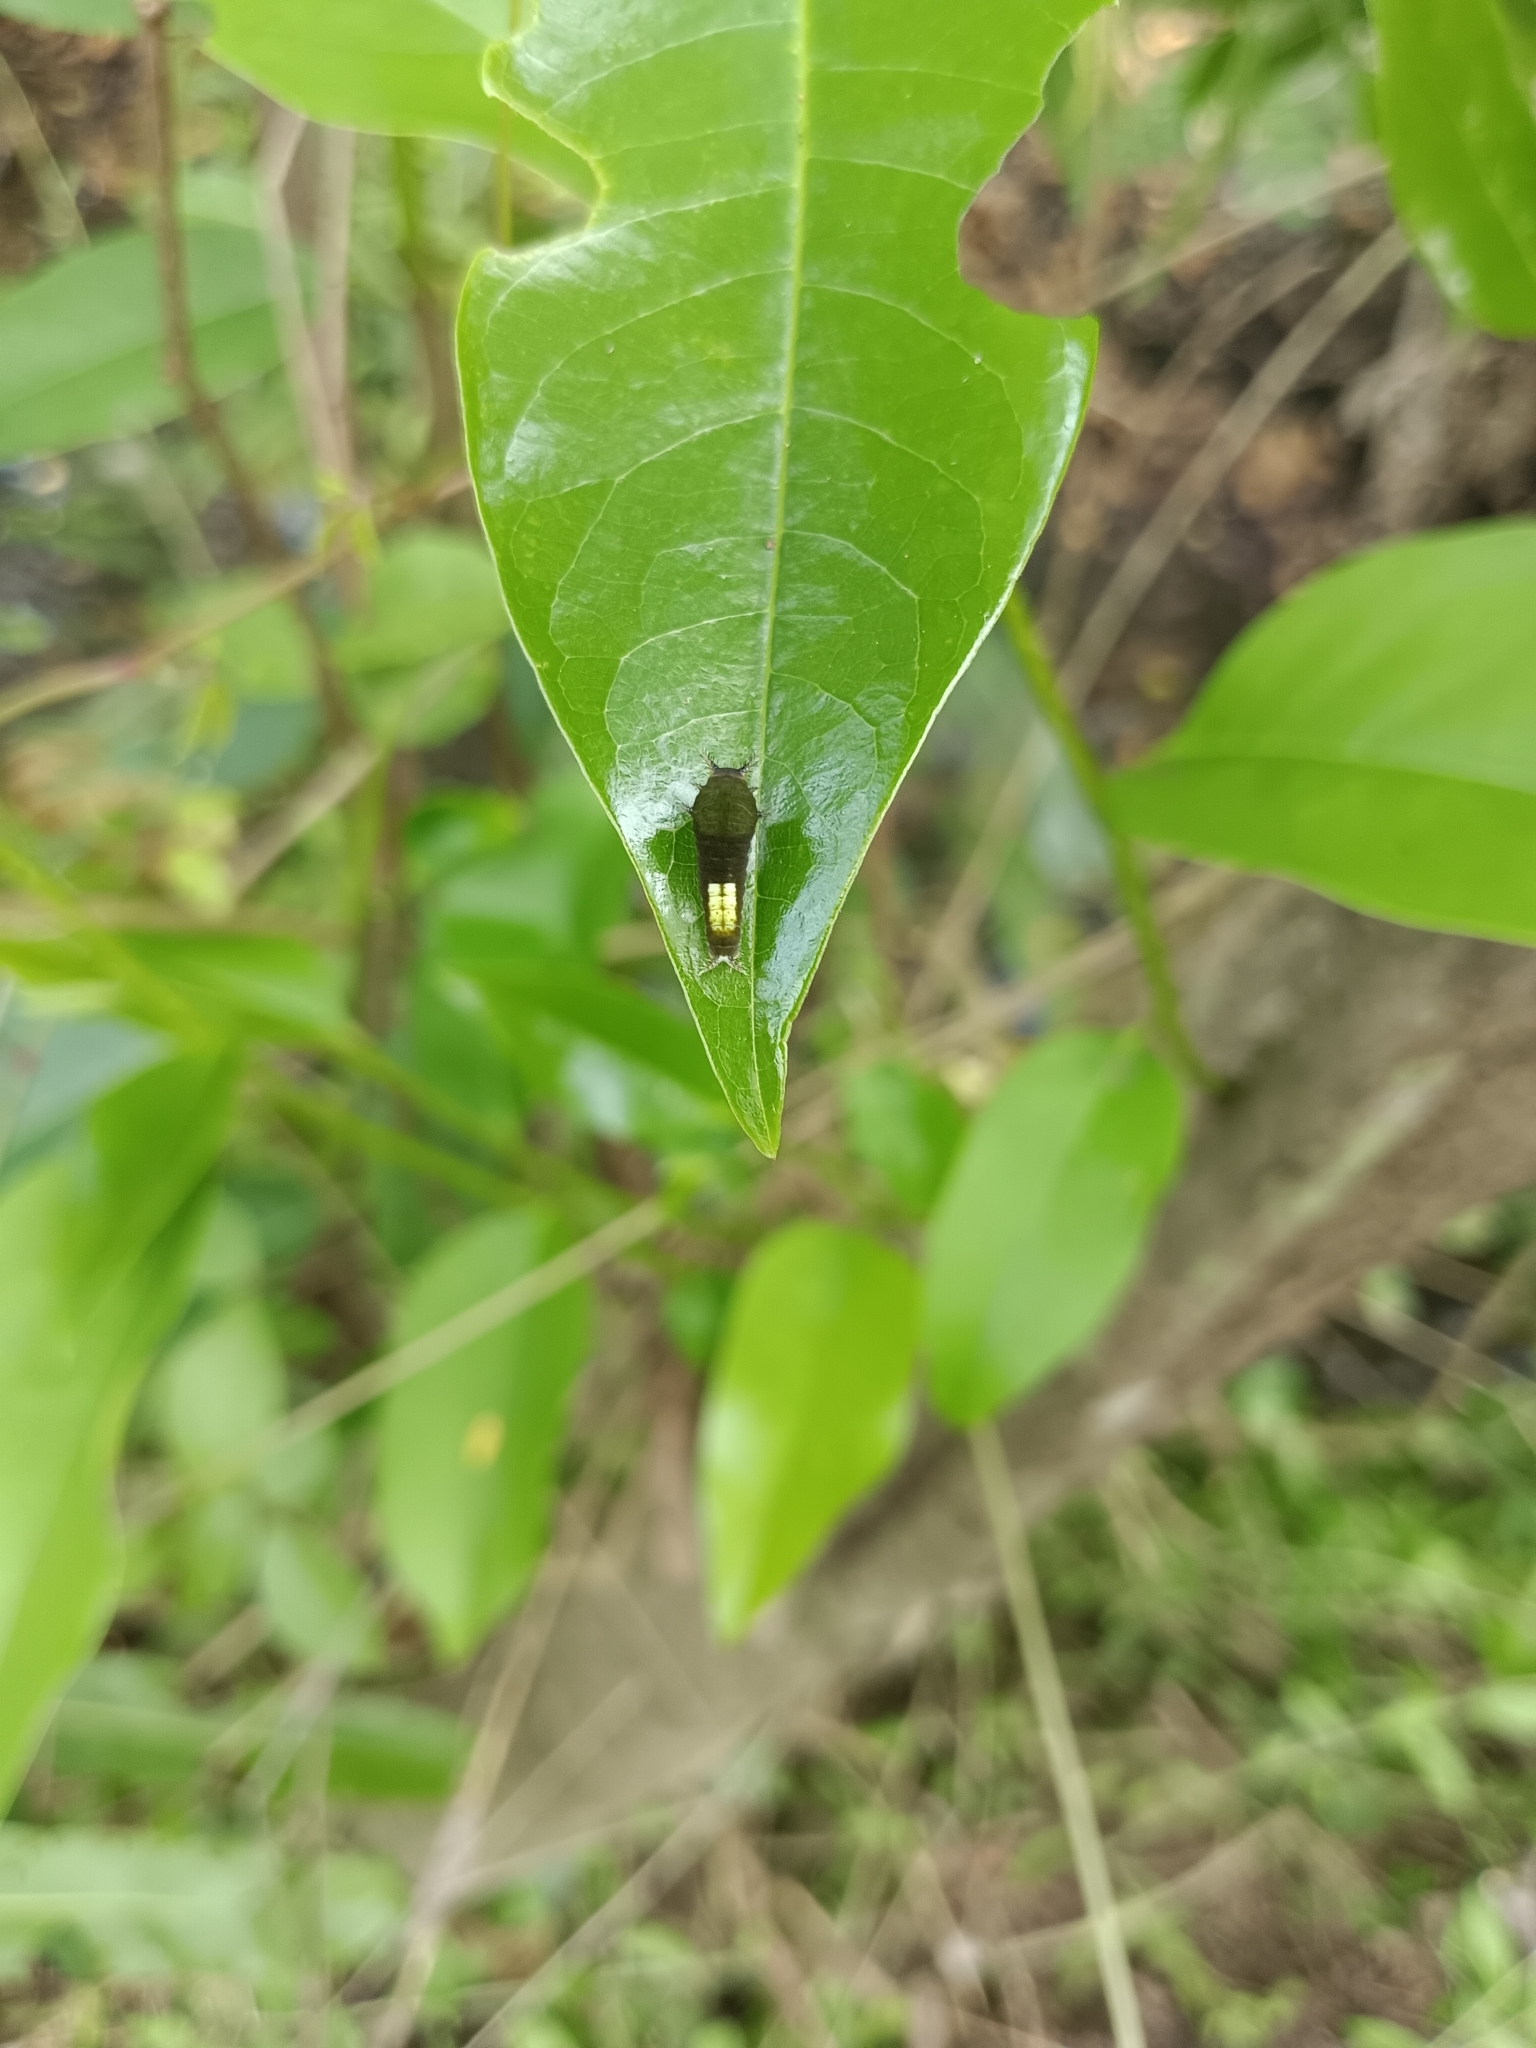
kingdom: Animalia
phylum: Arthropoda
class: Insecta
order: Lepidoptera
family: Papilionidae
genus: Graphium
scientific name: Graphium agamemnon
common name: Tailed jay
